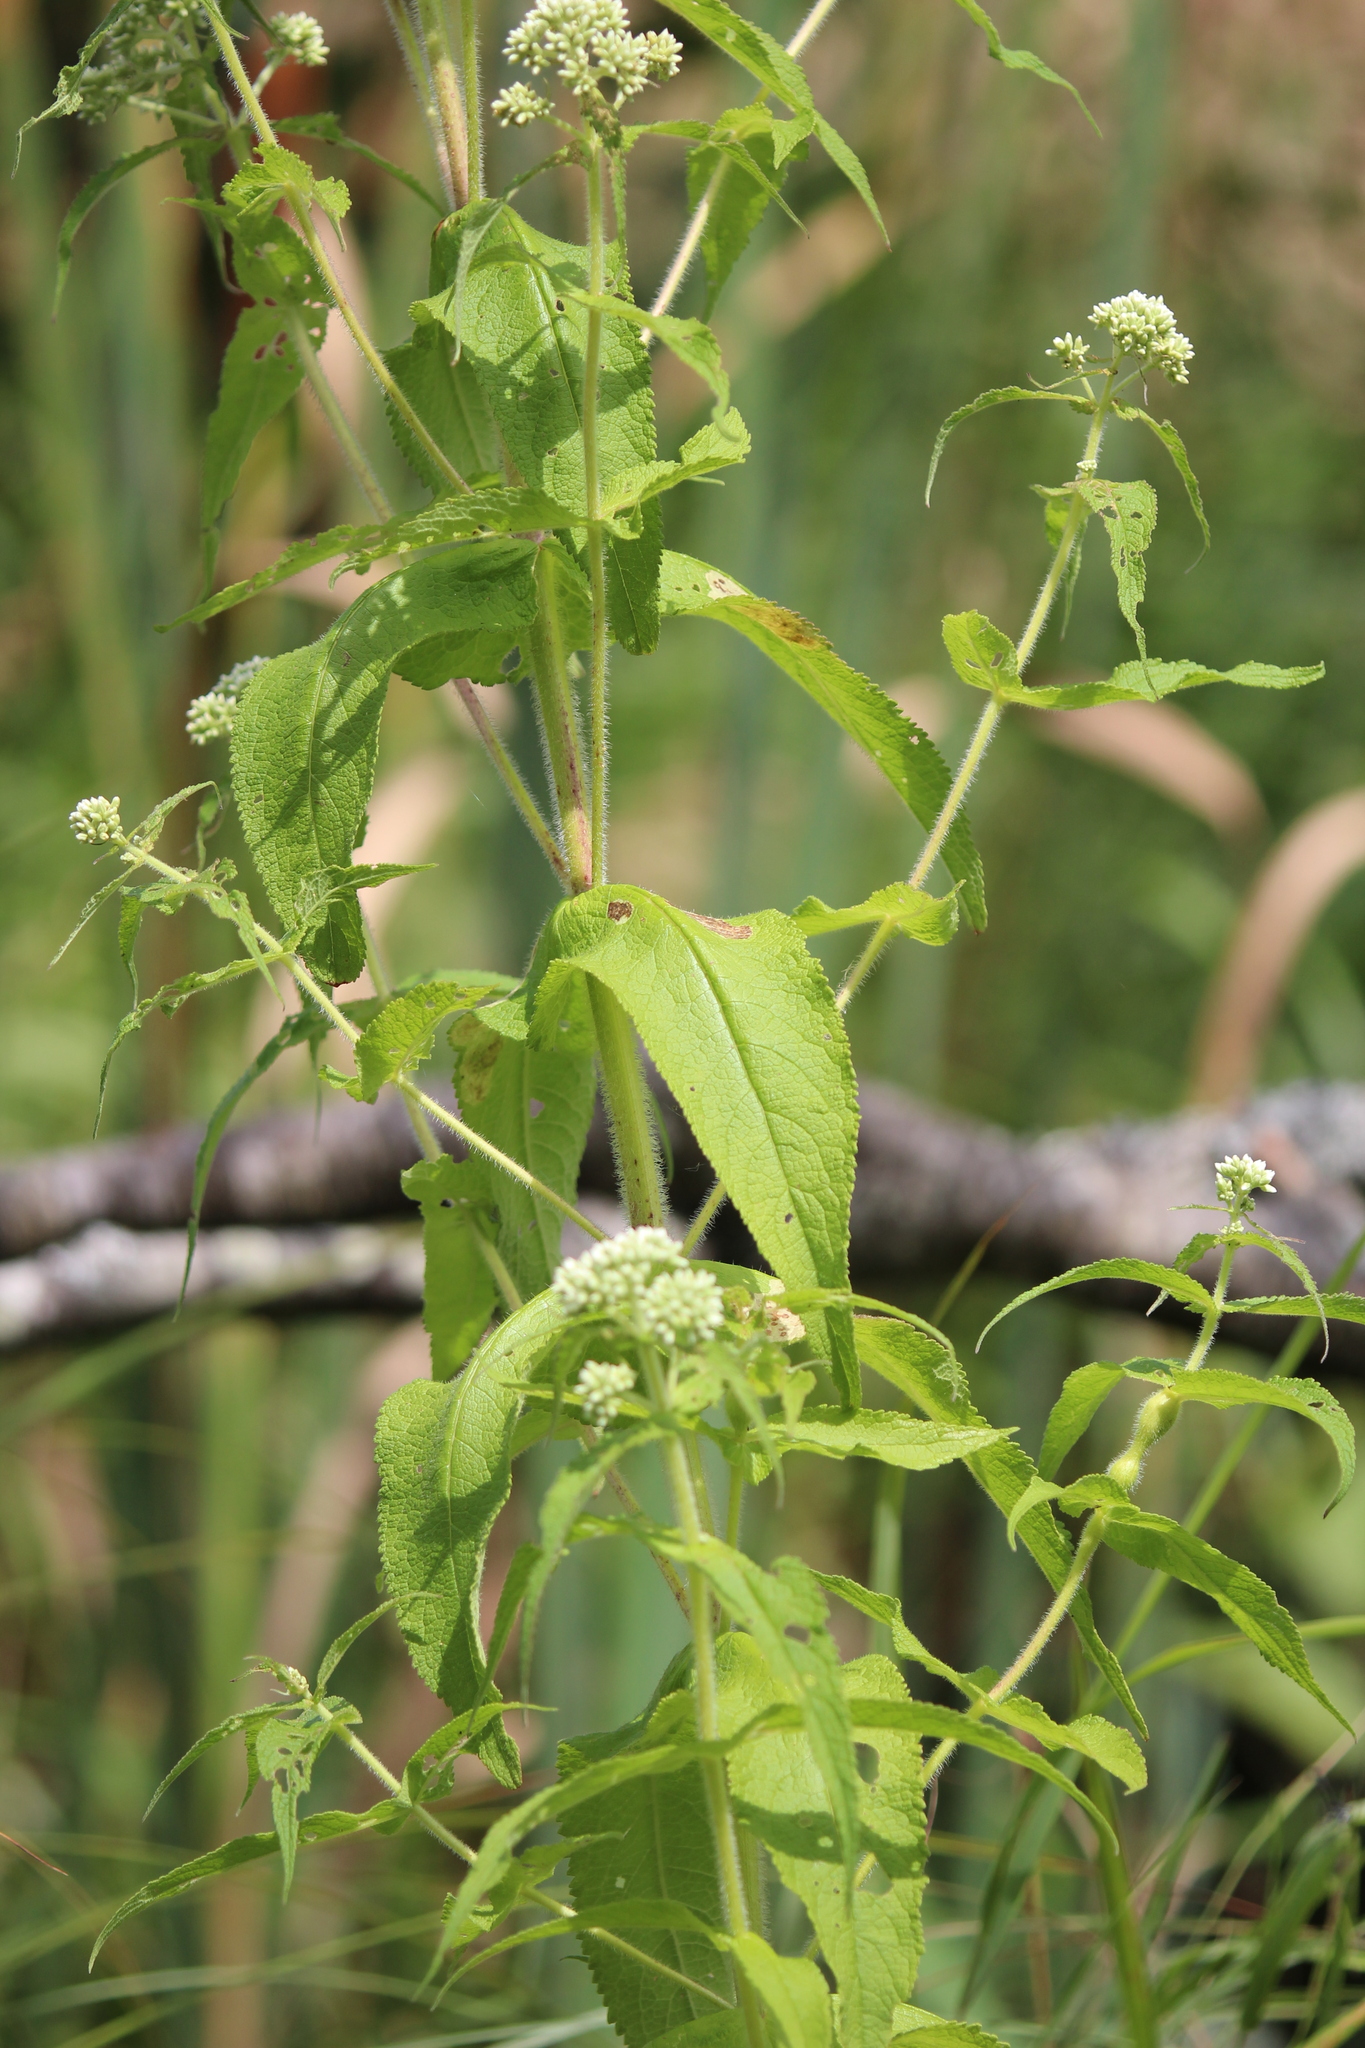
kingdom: Plantae
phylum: Tracheophyta
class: Magnoliopsida
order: Asterales
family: Asteraceae
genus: Eupatorium
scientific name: Eupatorium perfoliatum
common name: Boneset
